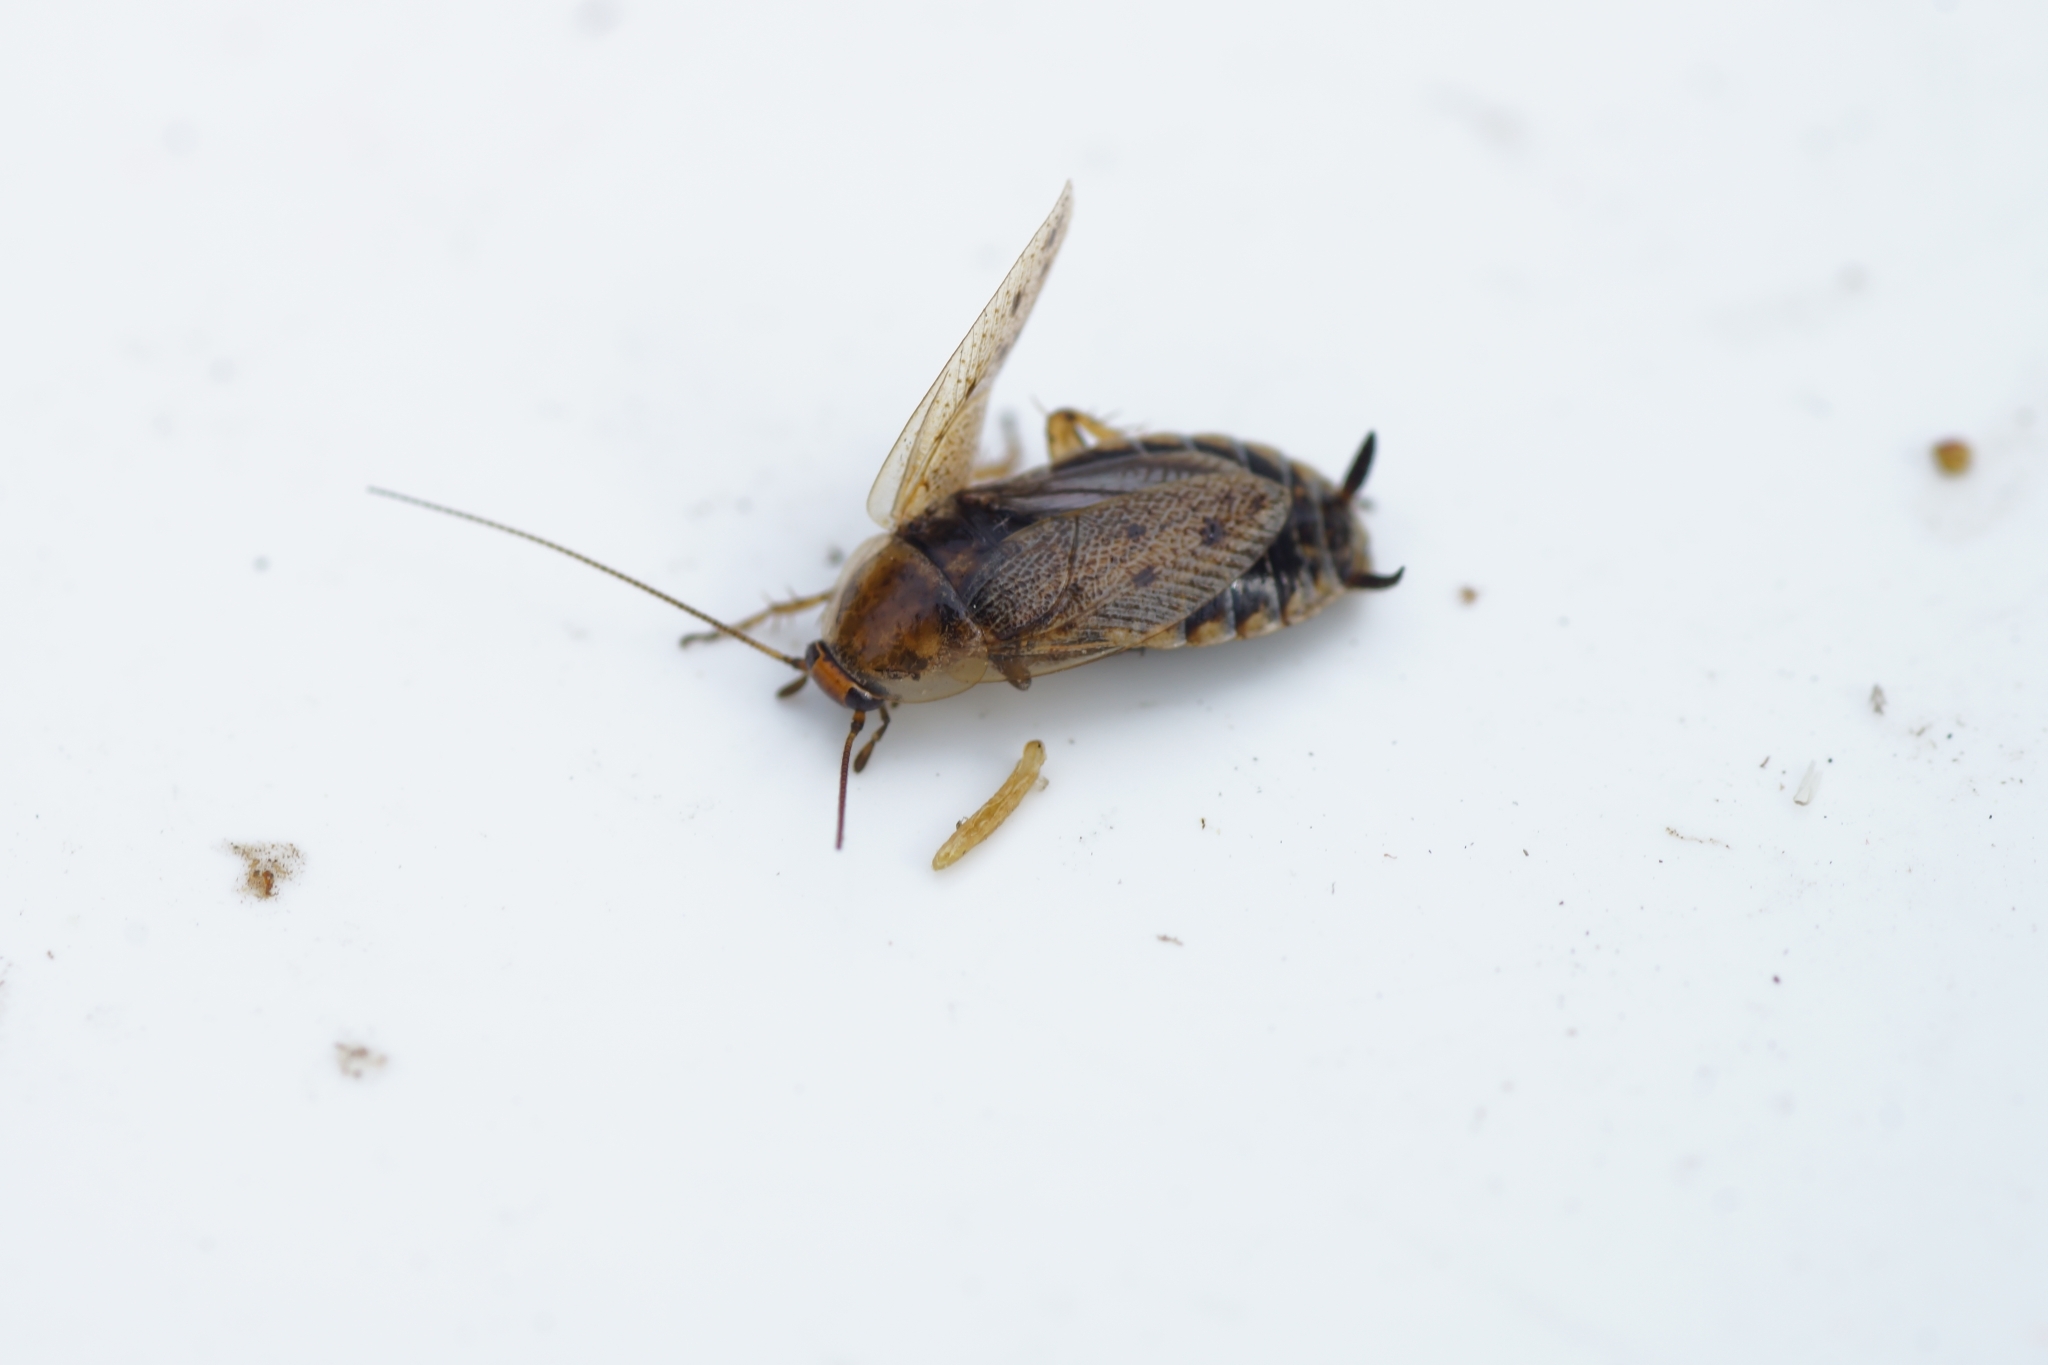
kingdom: Animalia
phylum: Arthropoda
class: Insecta
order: Blattodea
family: Ectobiidae
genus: Ectobius
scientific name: Ectobius lapponicus
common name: Dusky cockroach
